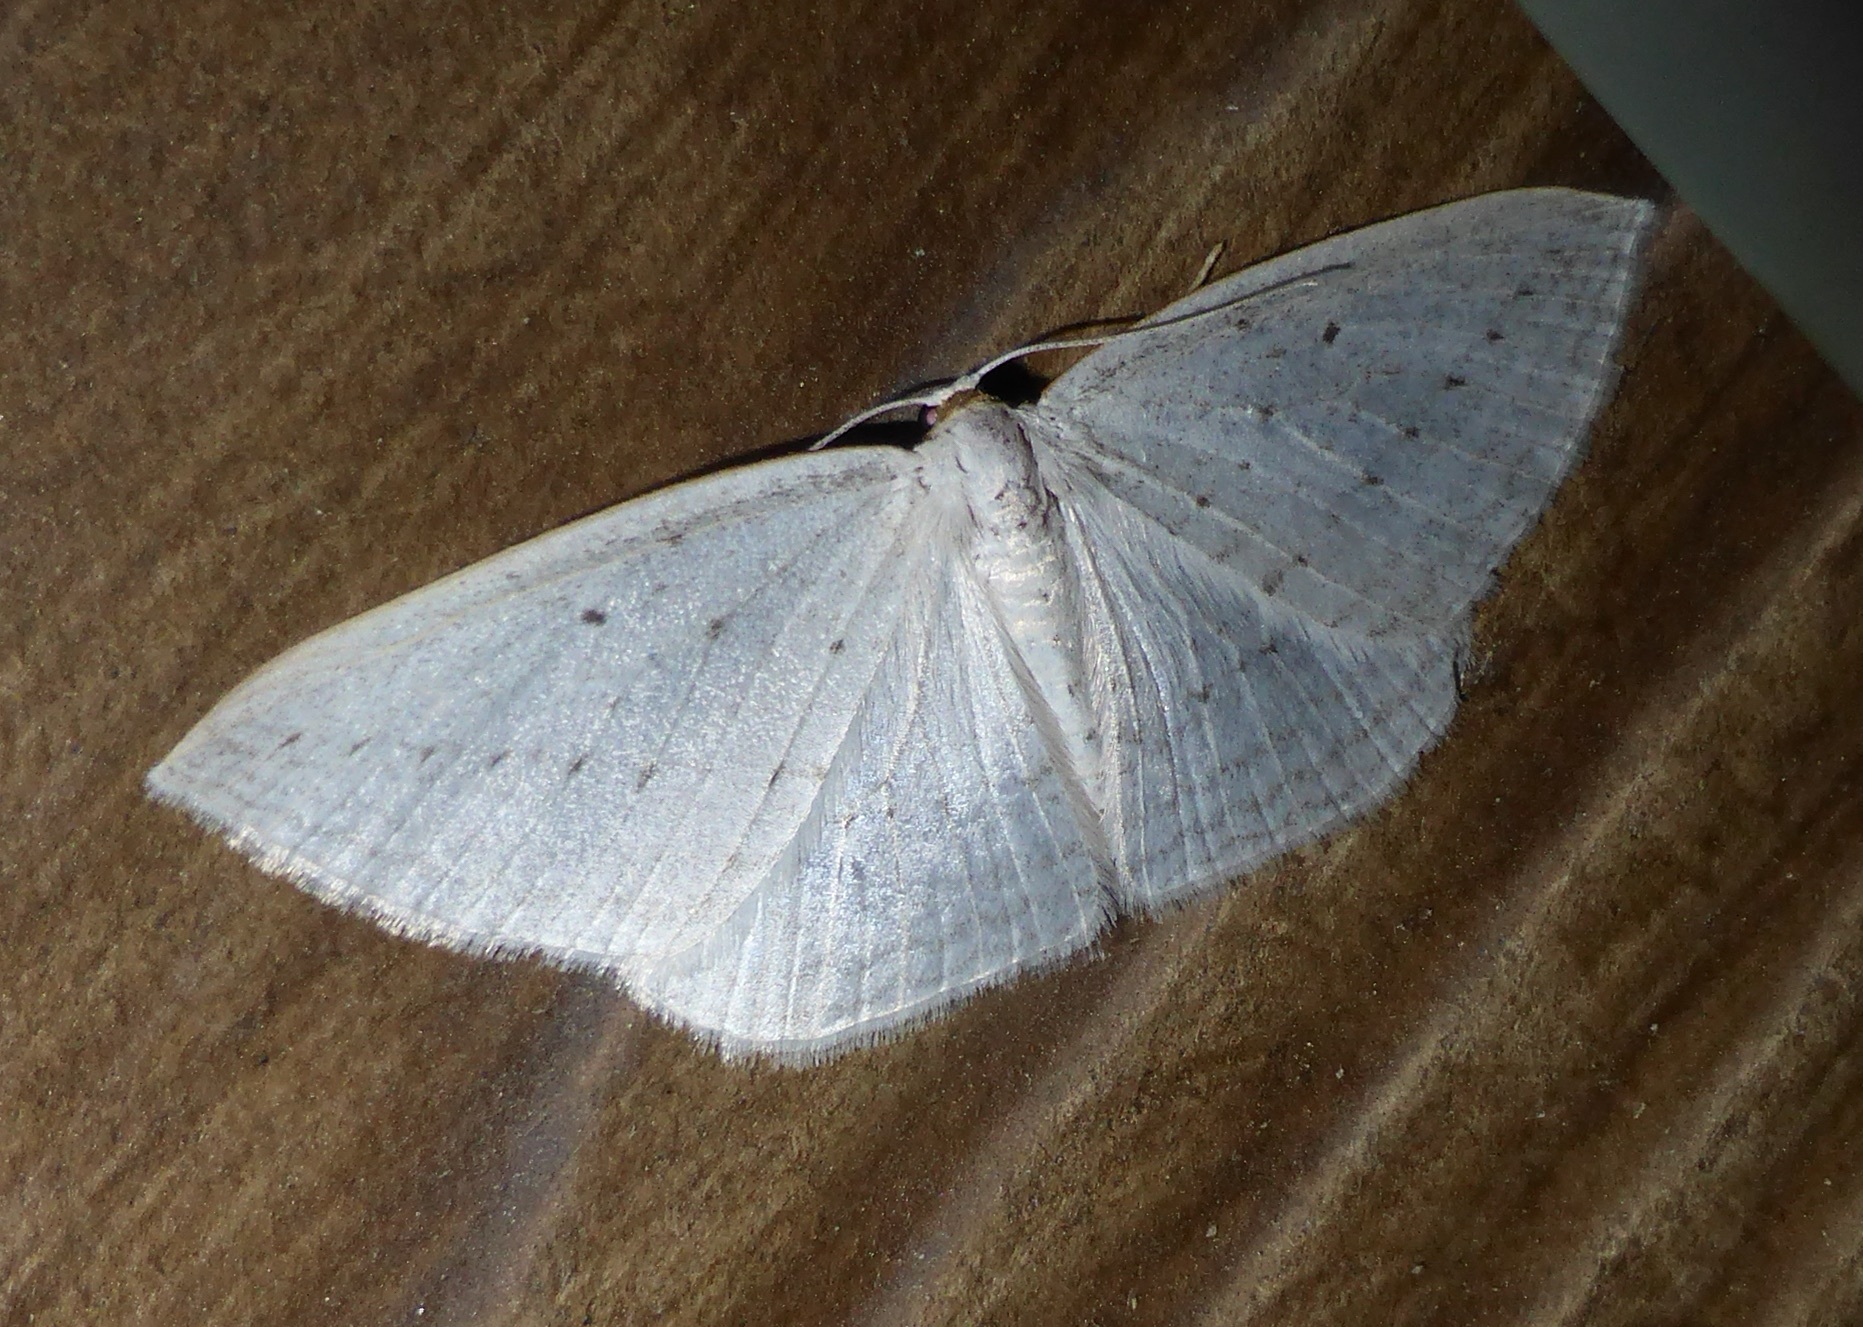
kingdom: Animalia
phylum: Arthropoda
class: Insecta
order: Lepidoptera
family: Geometridae
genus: Orthoclydon
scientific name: Orthoclydon praefectata
